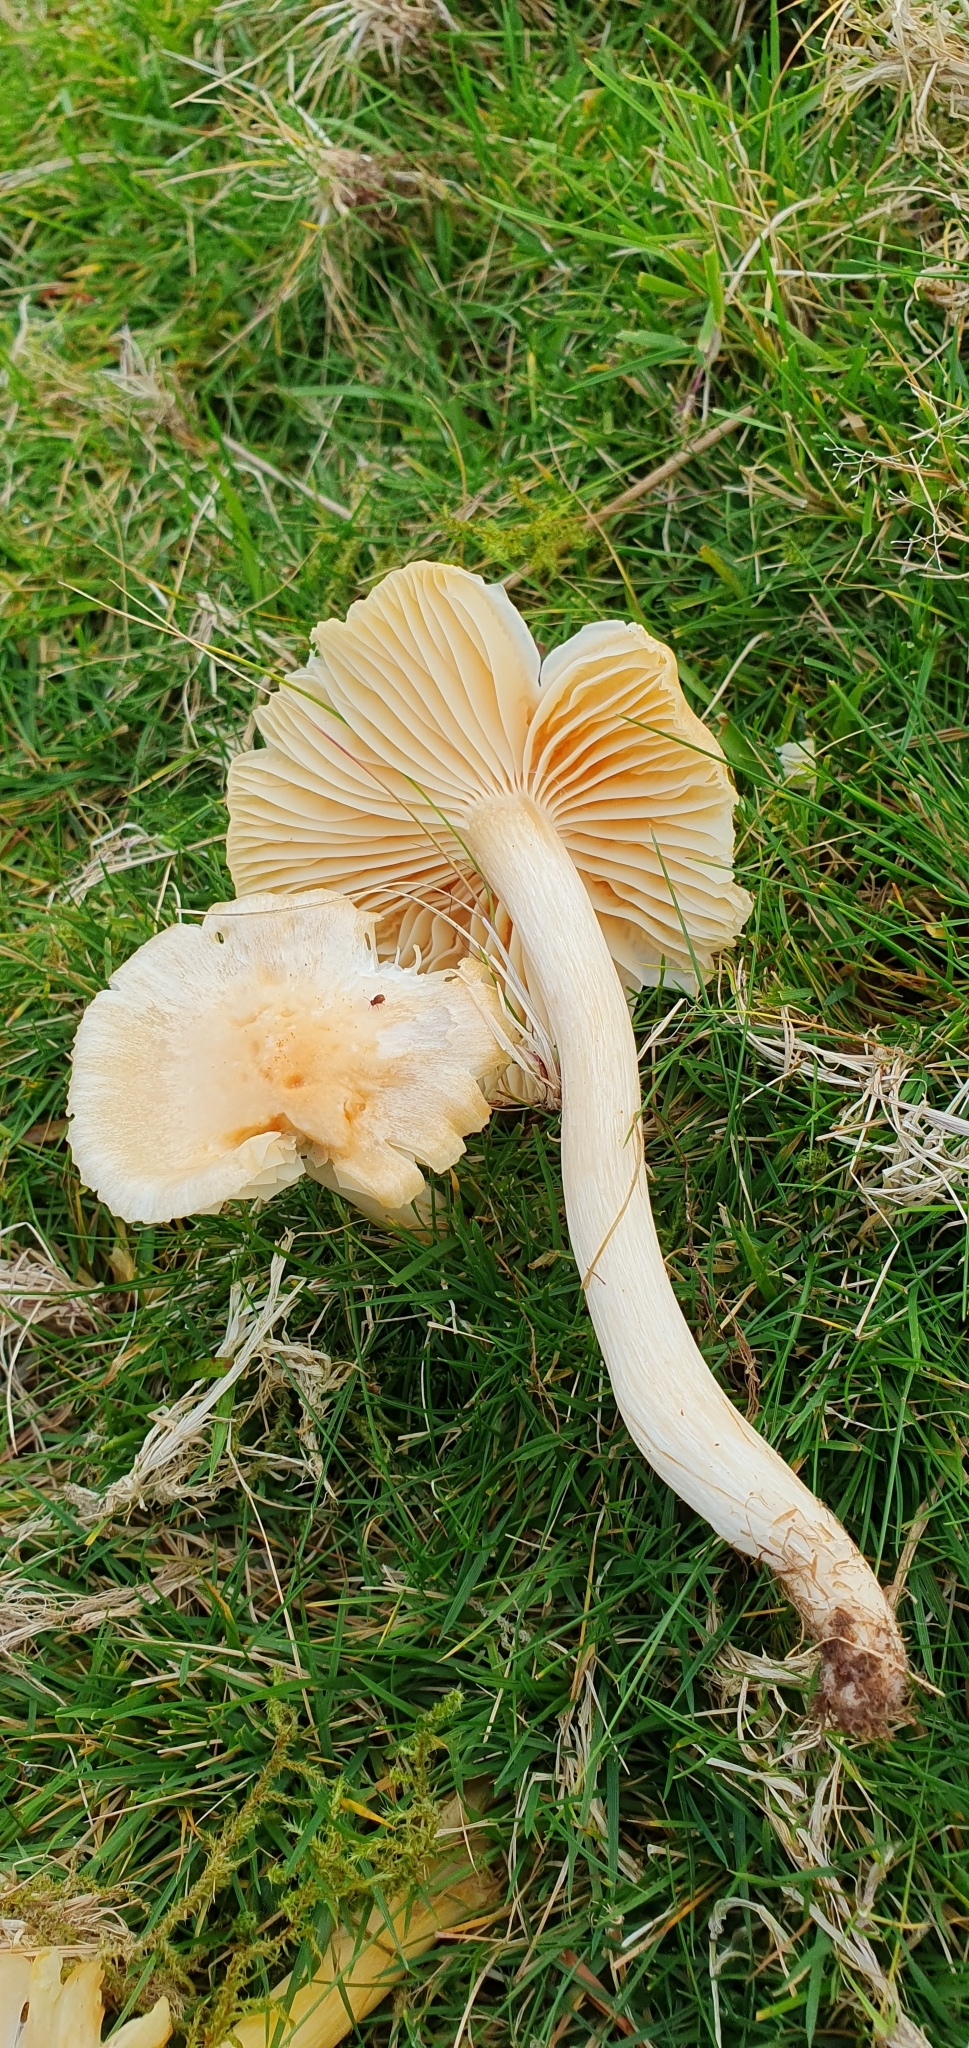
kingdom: Fungi
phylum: Basidiomycota
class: Agaricomycetes
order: Agaricales
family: Hygrophoraceae
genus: Cuphophyllus
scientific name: Cuphophyllus pratensis
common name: Meadow waxcap
